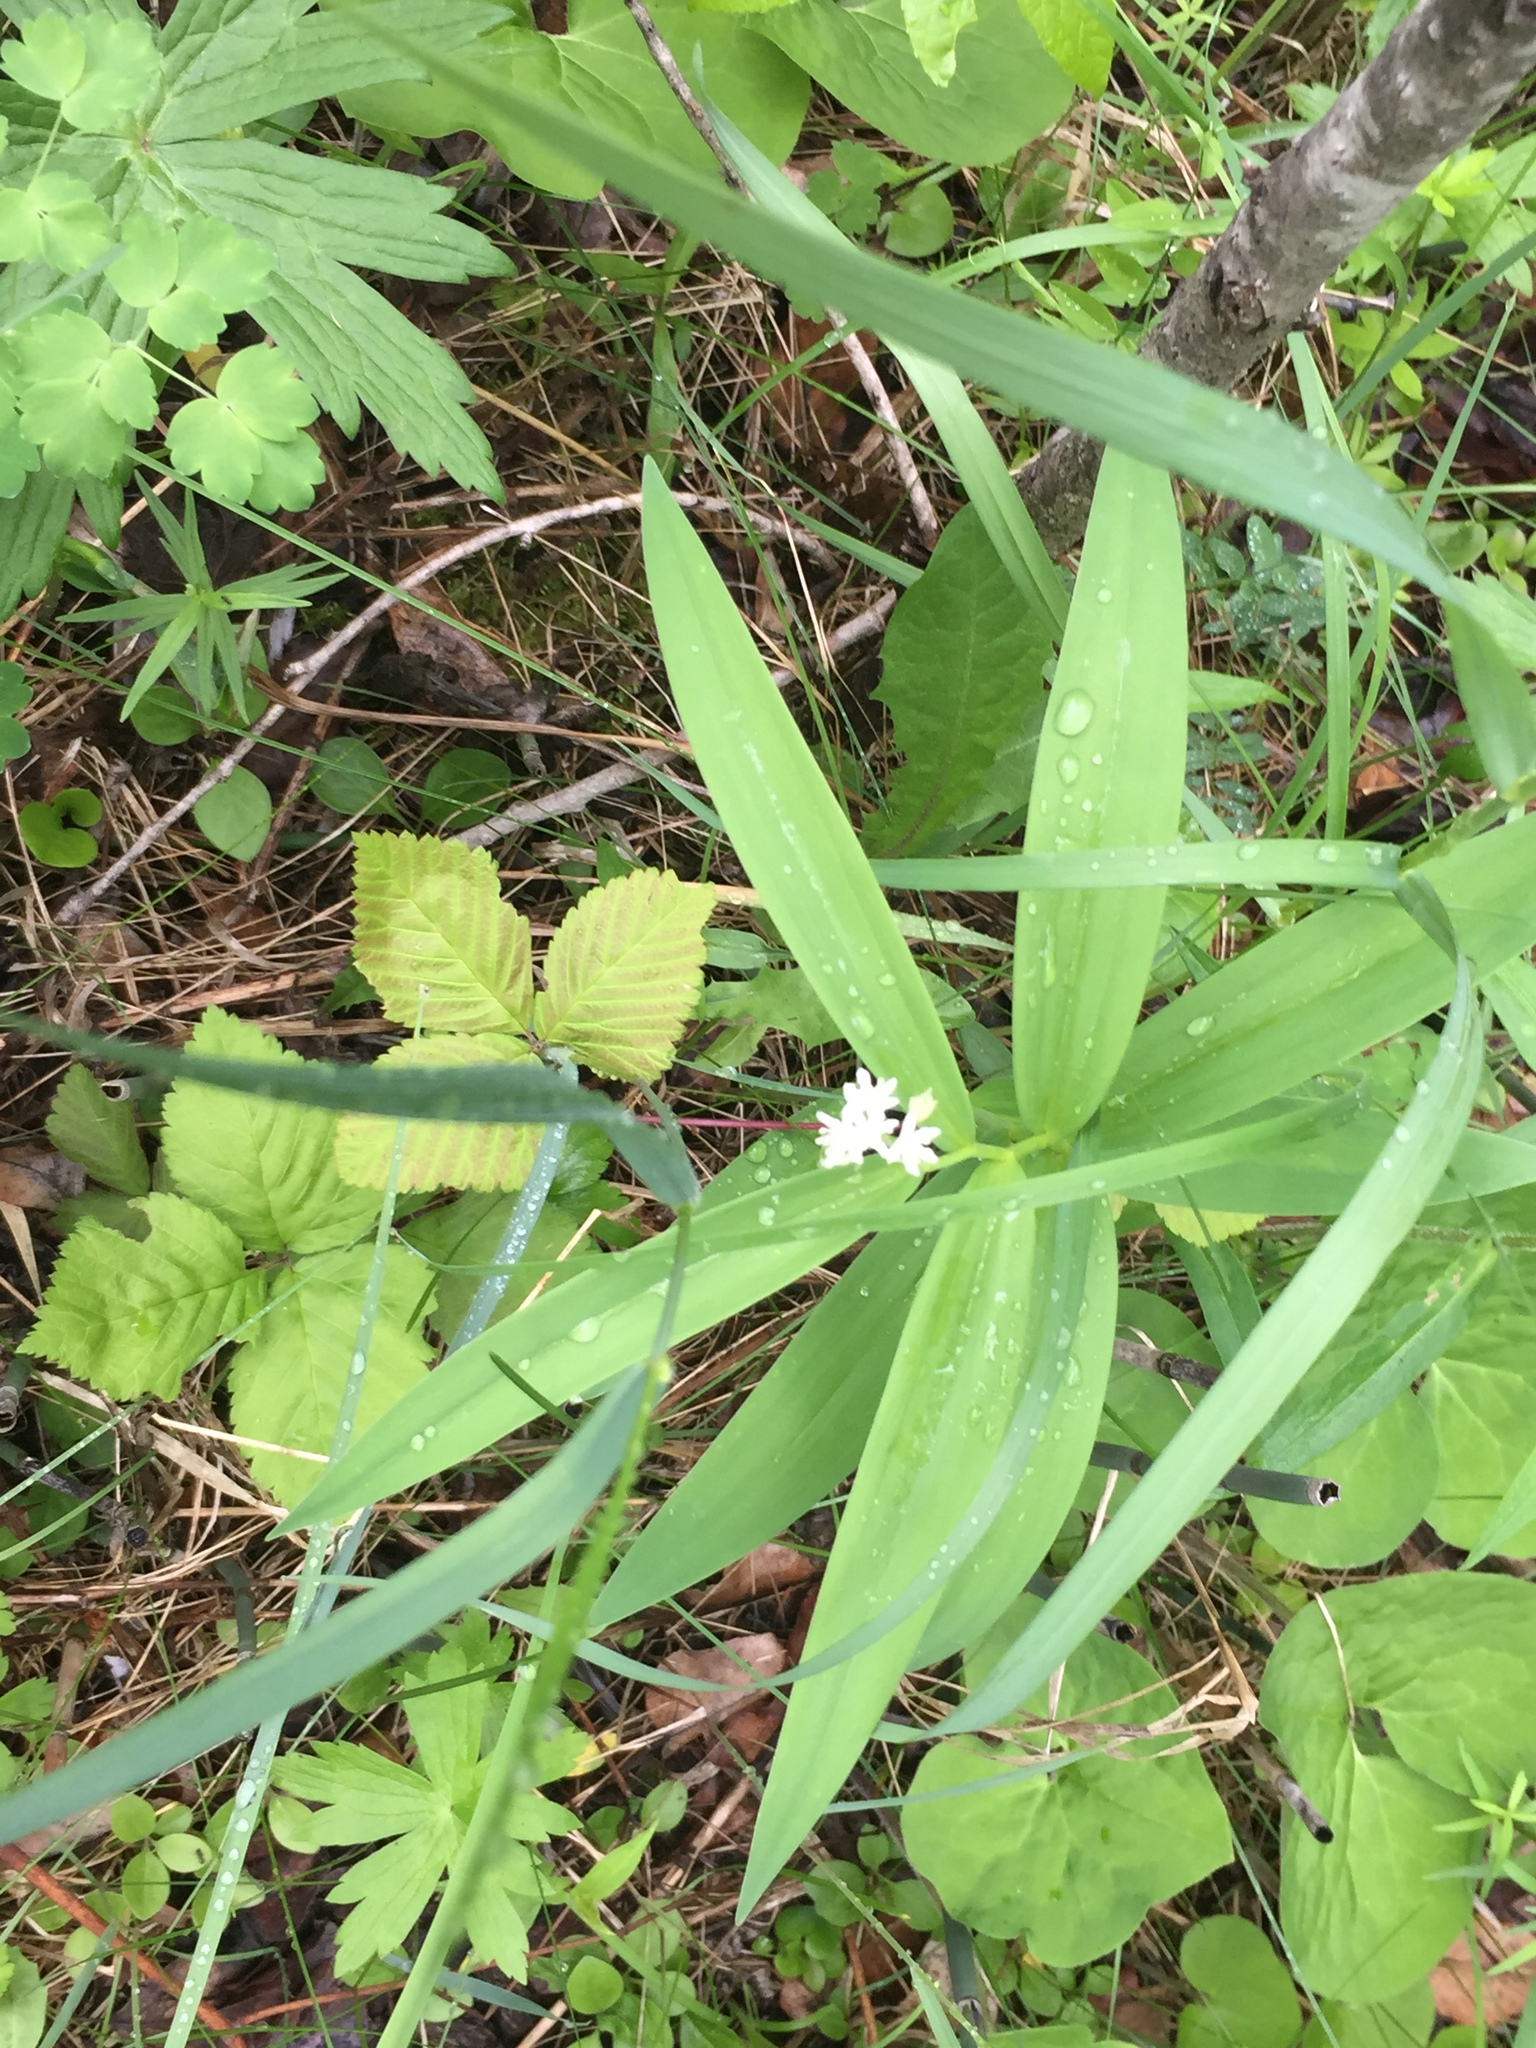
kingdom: Plantae
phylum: Tracheophyta
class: Liliopsida
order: Asparagales
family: Asparagaceae
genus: Maianthemum
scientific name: Maianthemum stellatum
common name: Little false solomon's seal
